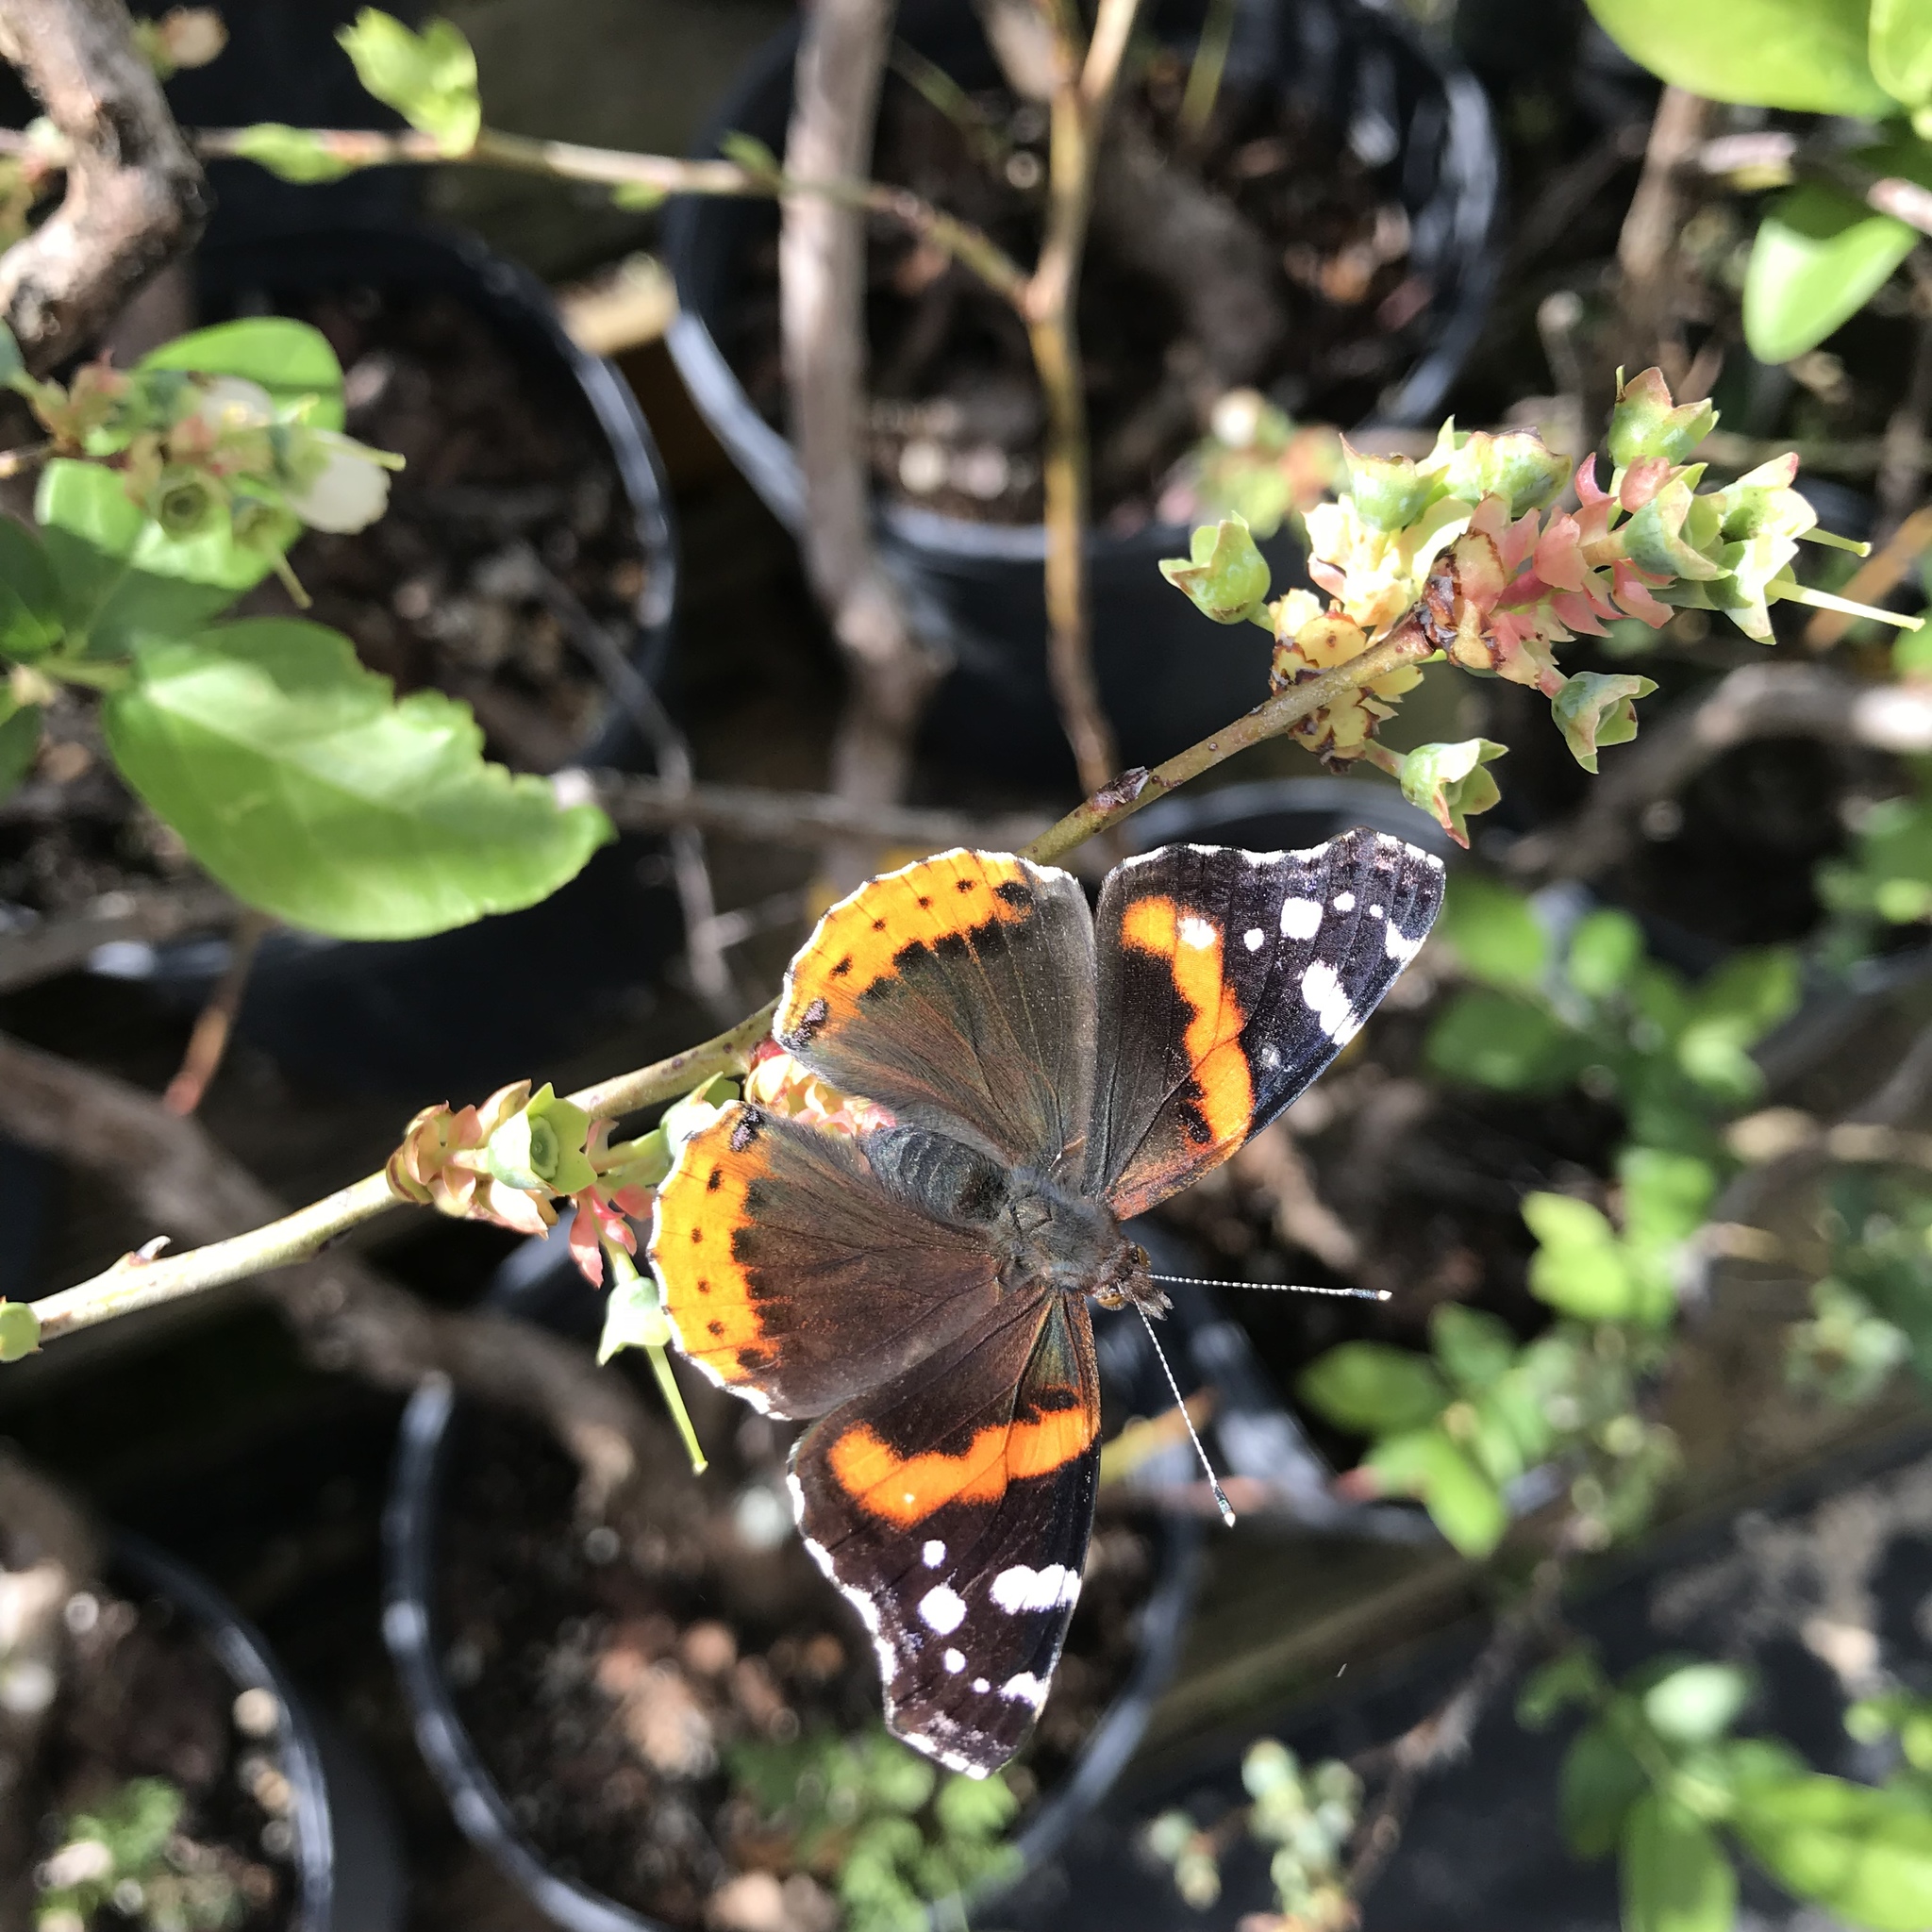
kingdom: Animalia
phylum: Arthropoda
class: Insecta
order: Lepidoptera
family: Nymphalidae
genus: Vanessa
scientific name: Vanessa atalanta
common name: Red admiral
